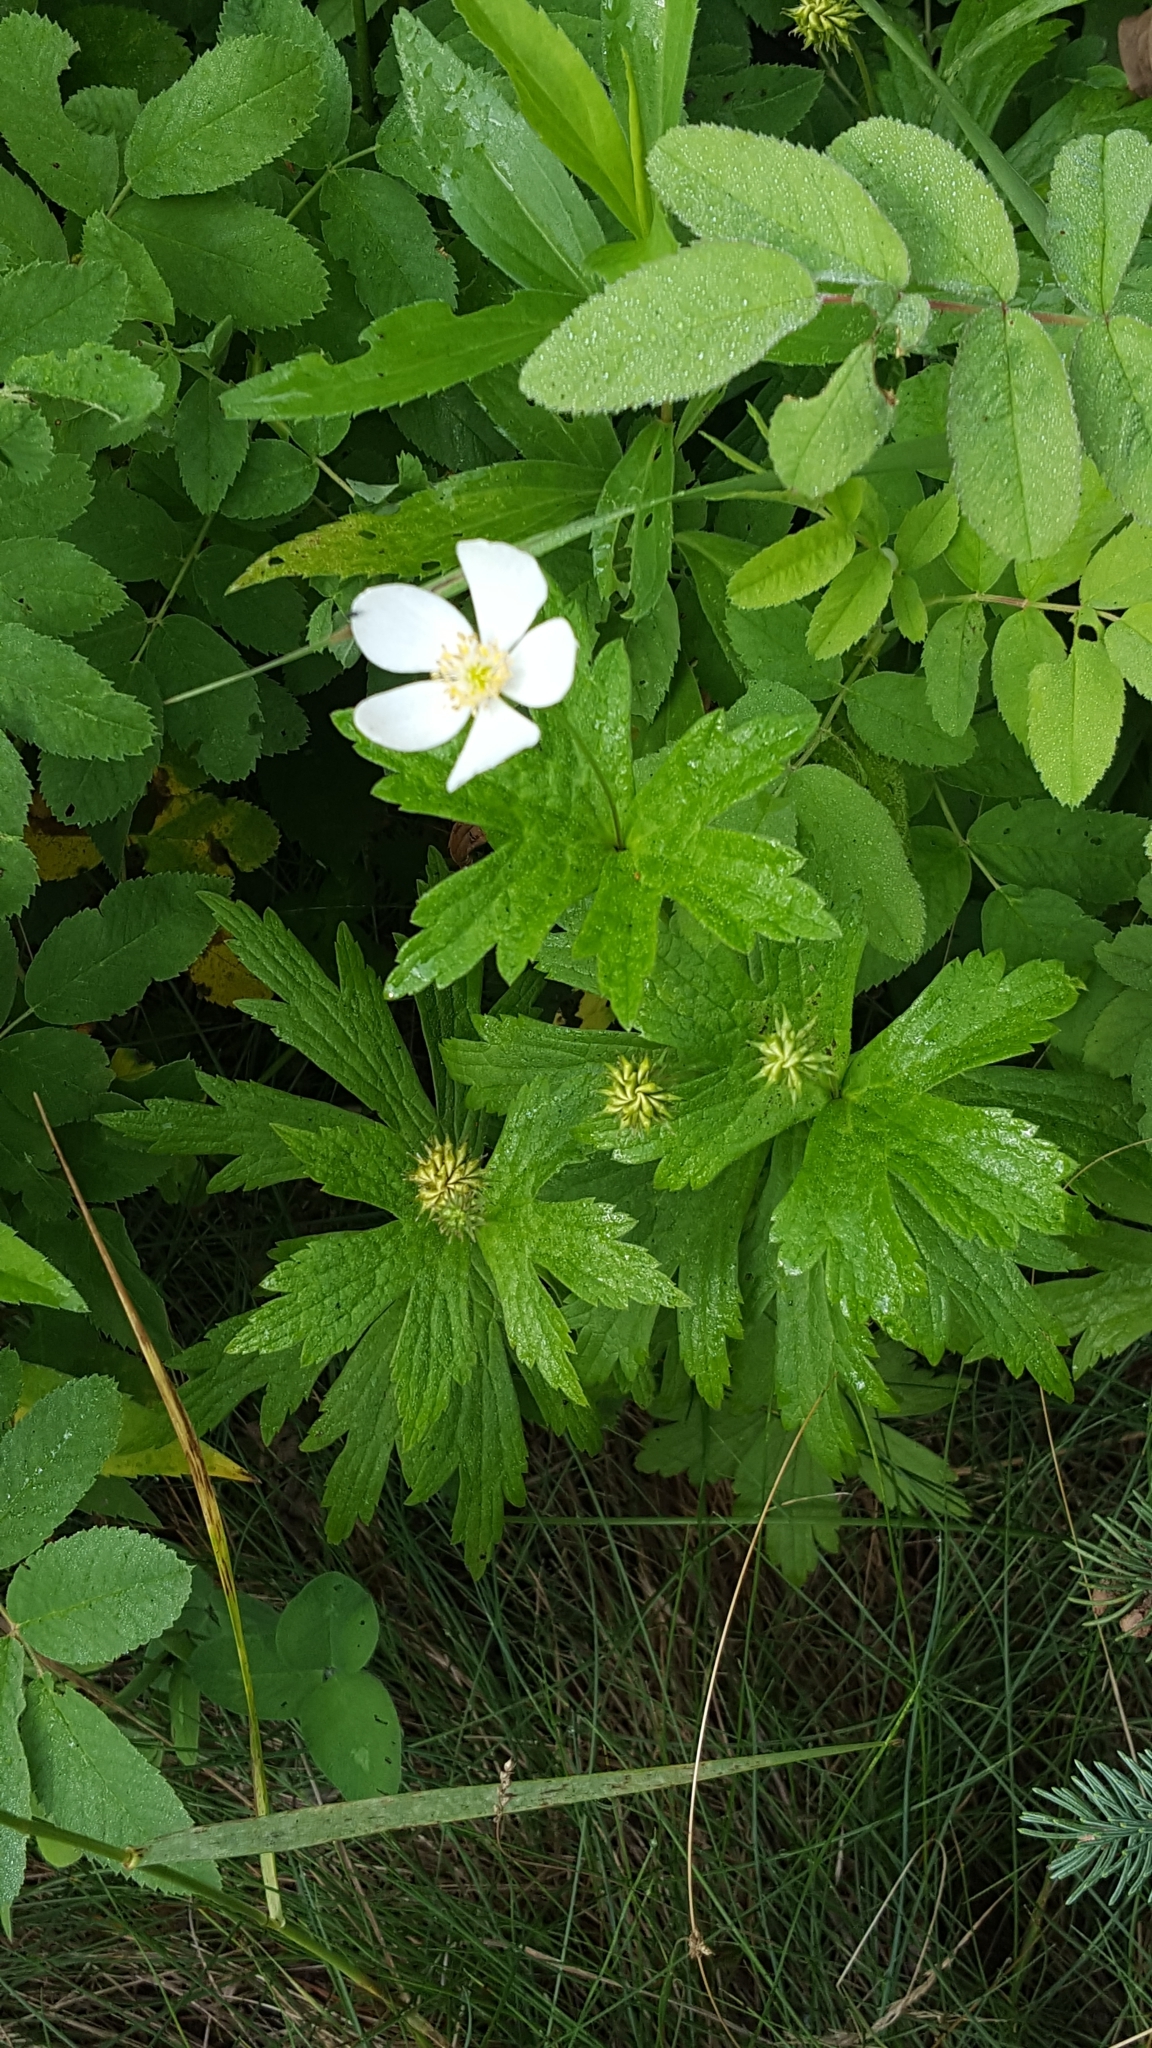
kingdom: Plantae
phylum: Tracheophyta
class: Magnoliopsida
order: Ranunculales
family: Ranunculaceae
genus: Anemonastrum
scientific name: Anemonastrum canadense
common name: Canada anemone
